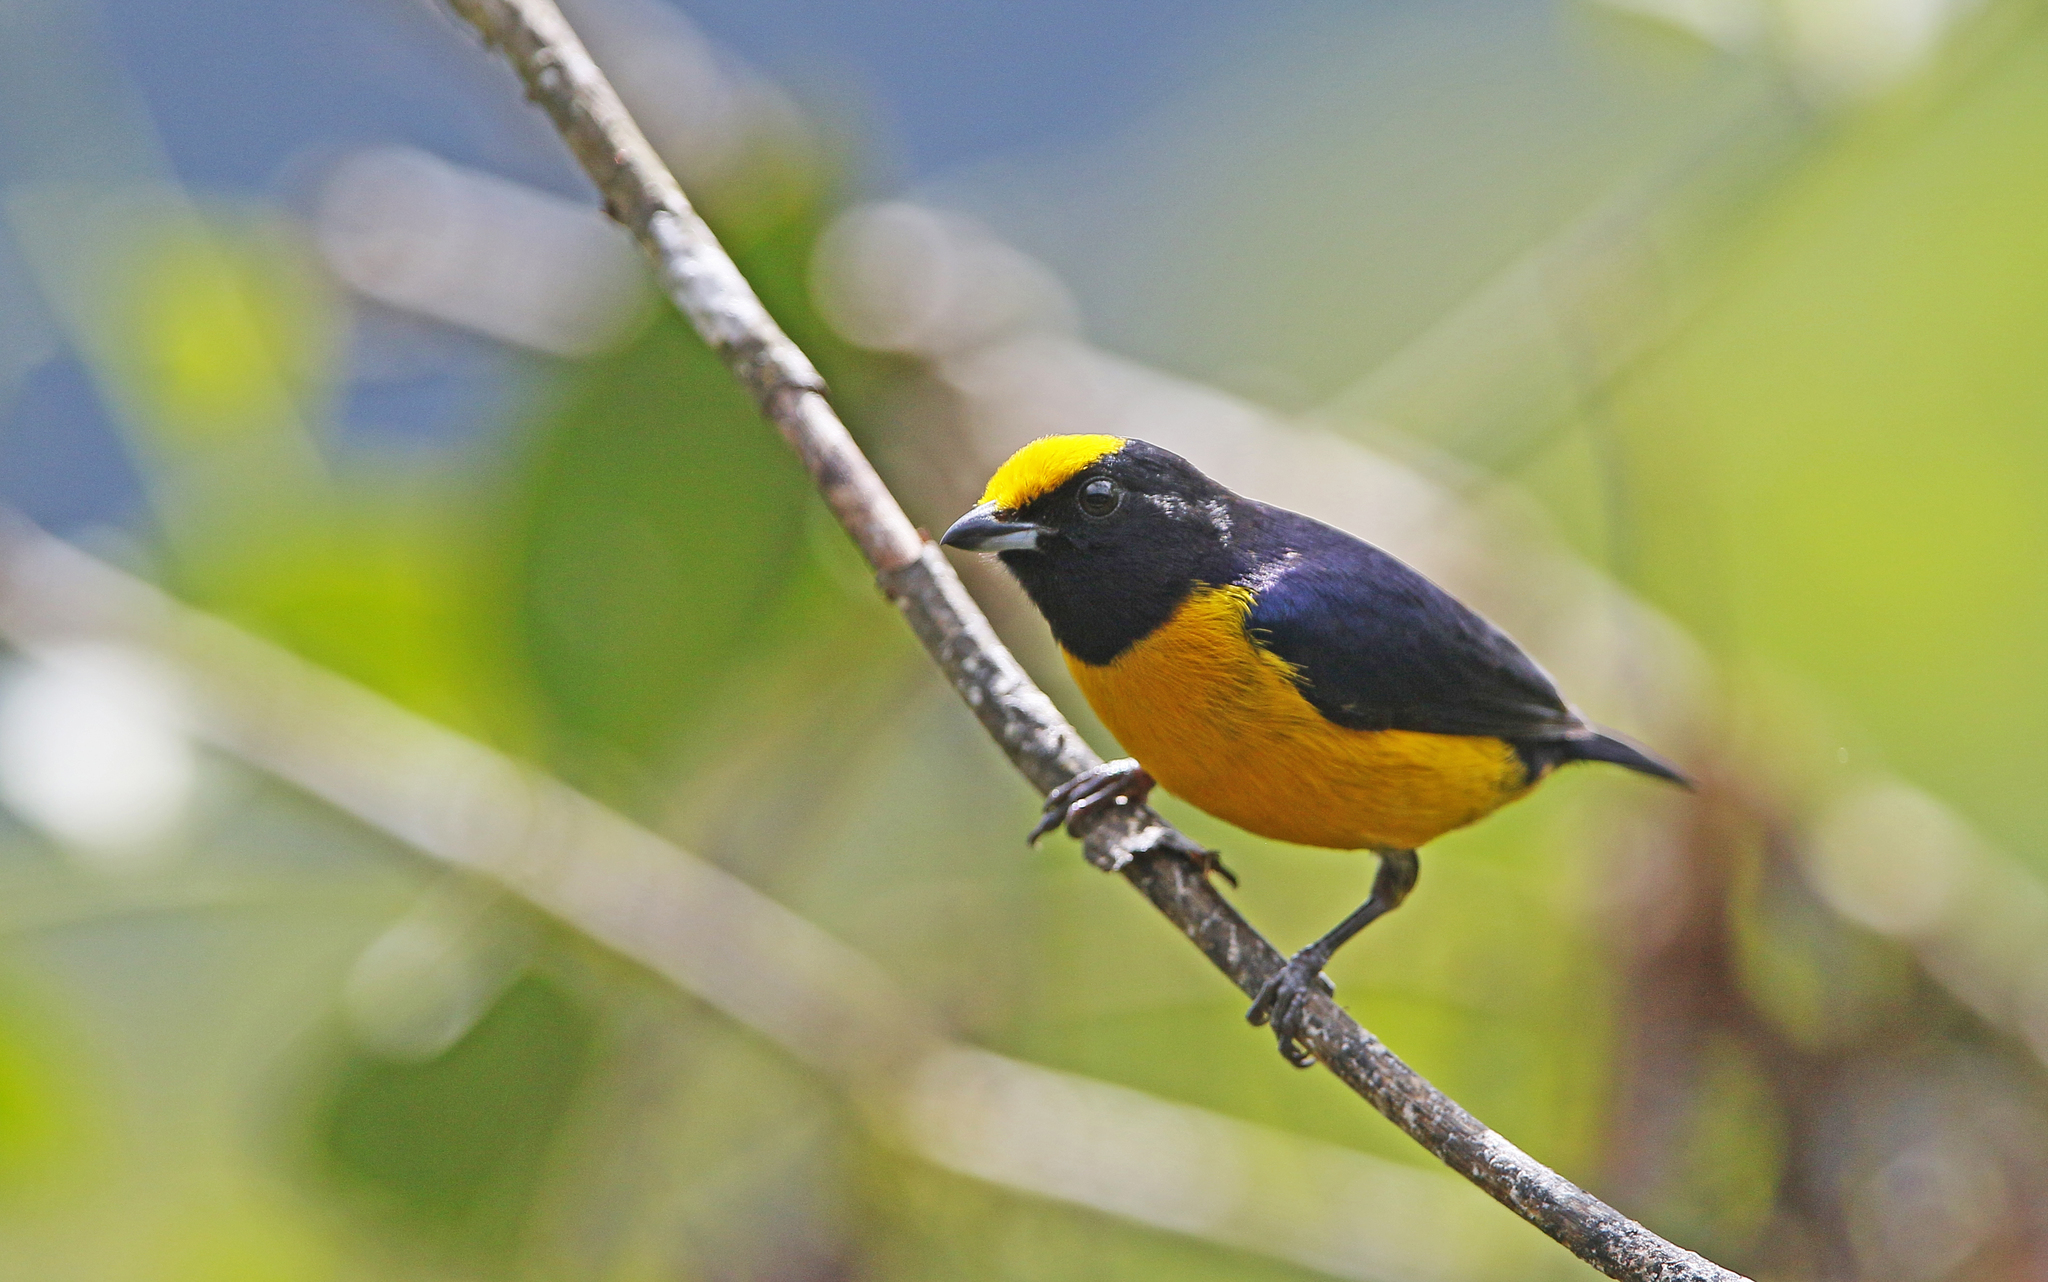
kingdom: Animalia
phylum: Chordata
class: Aves
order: Passeriformes
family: Fringillidae
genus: Euphonia
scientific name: Euphonia xanthogaster
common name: Orange-bellied euphonia
